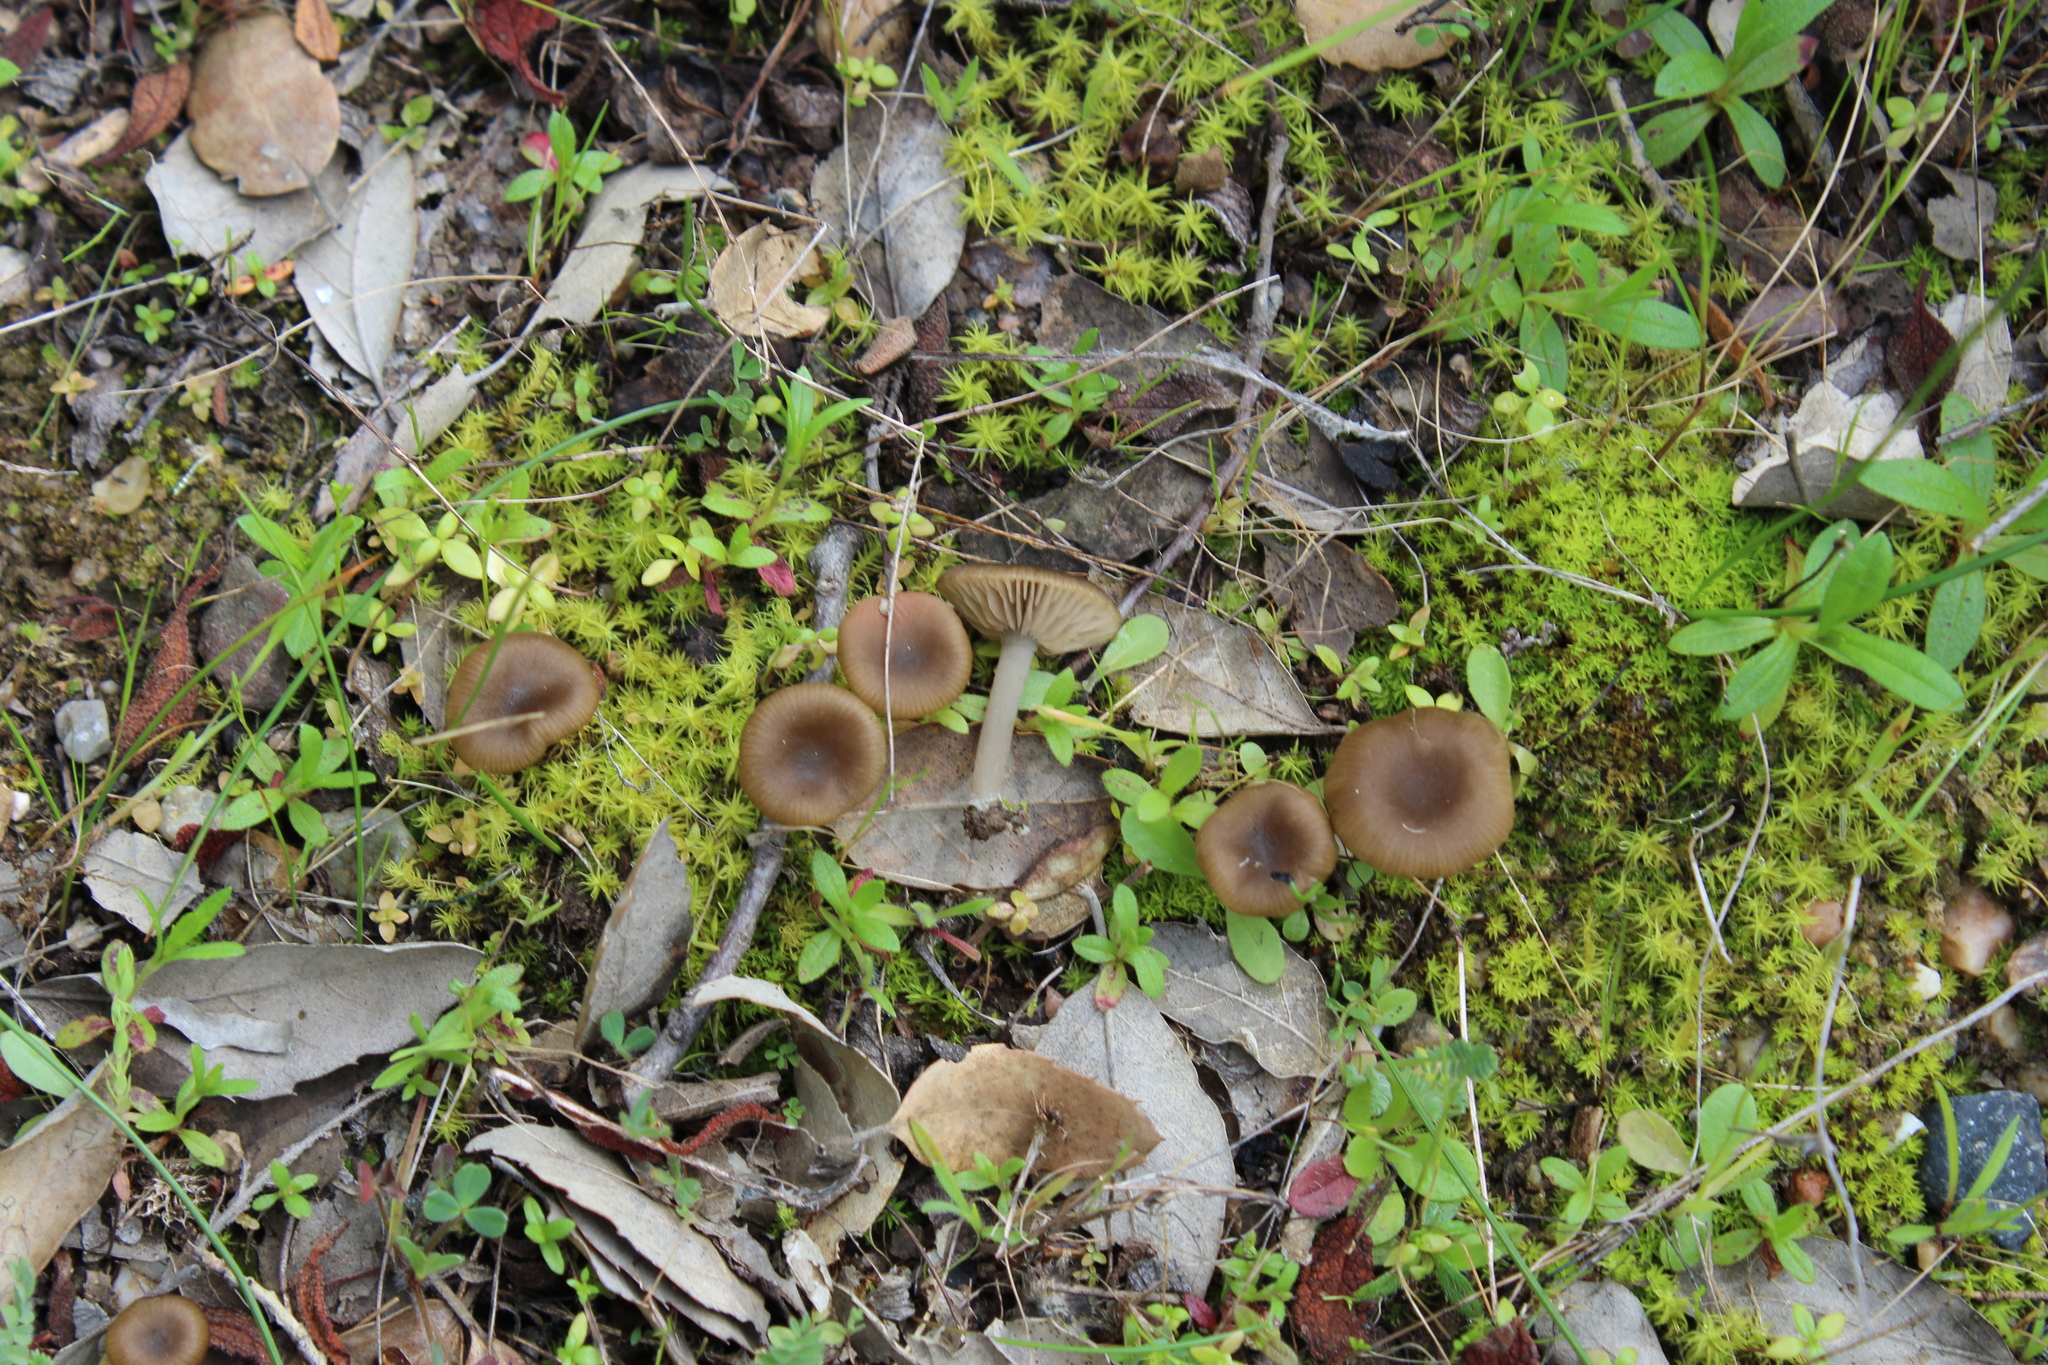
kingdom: Fungi
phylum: Basidiomycota
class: Agaricomycetes
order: Agaricales
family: Entolomataceae
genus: Entoloma
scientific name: Entoloma cistophilum
